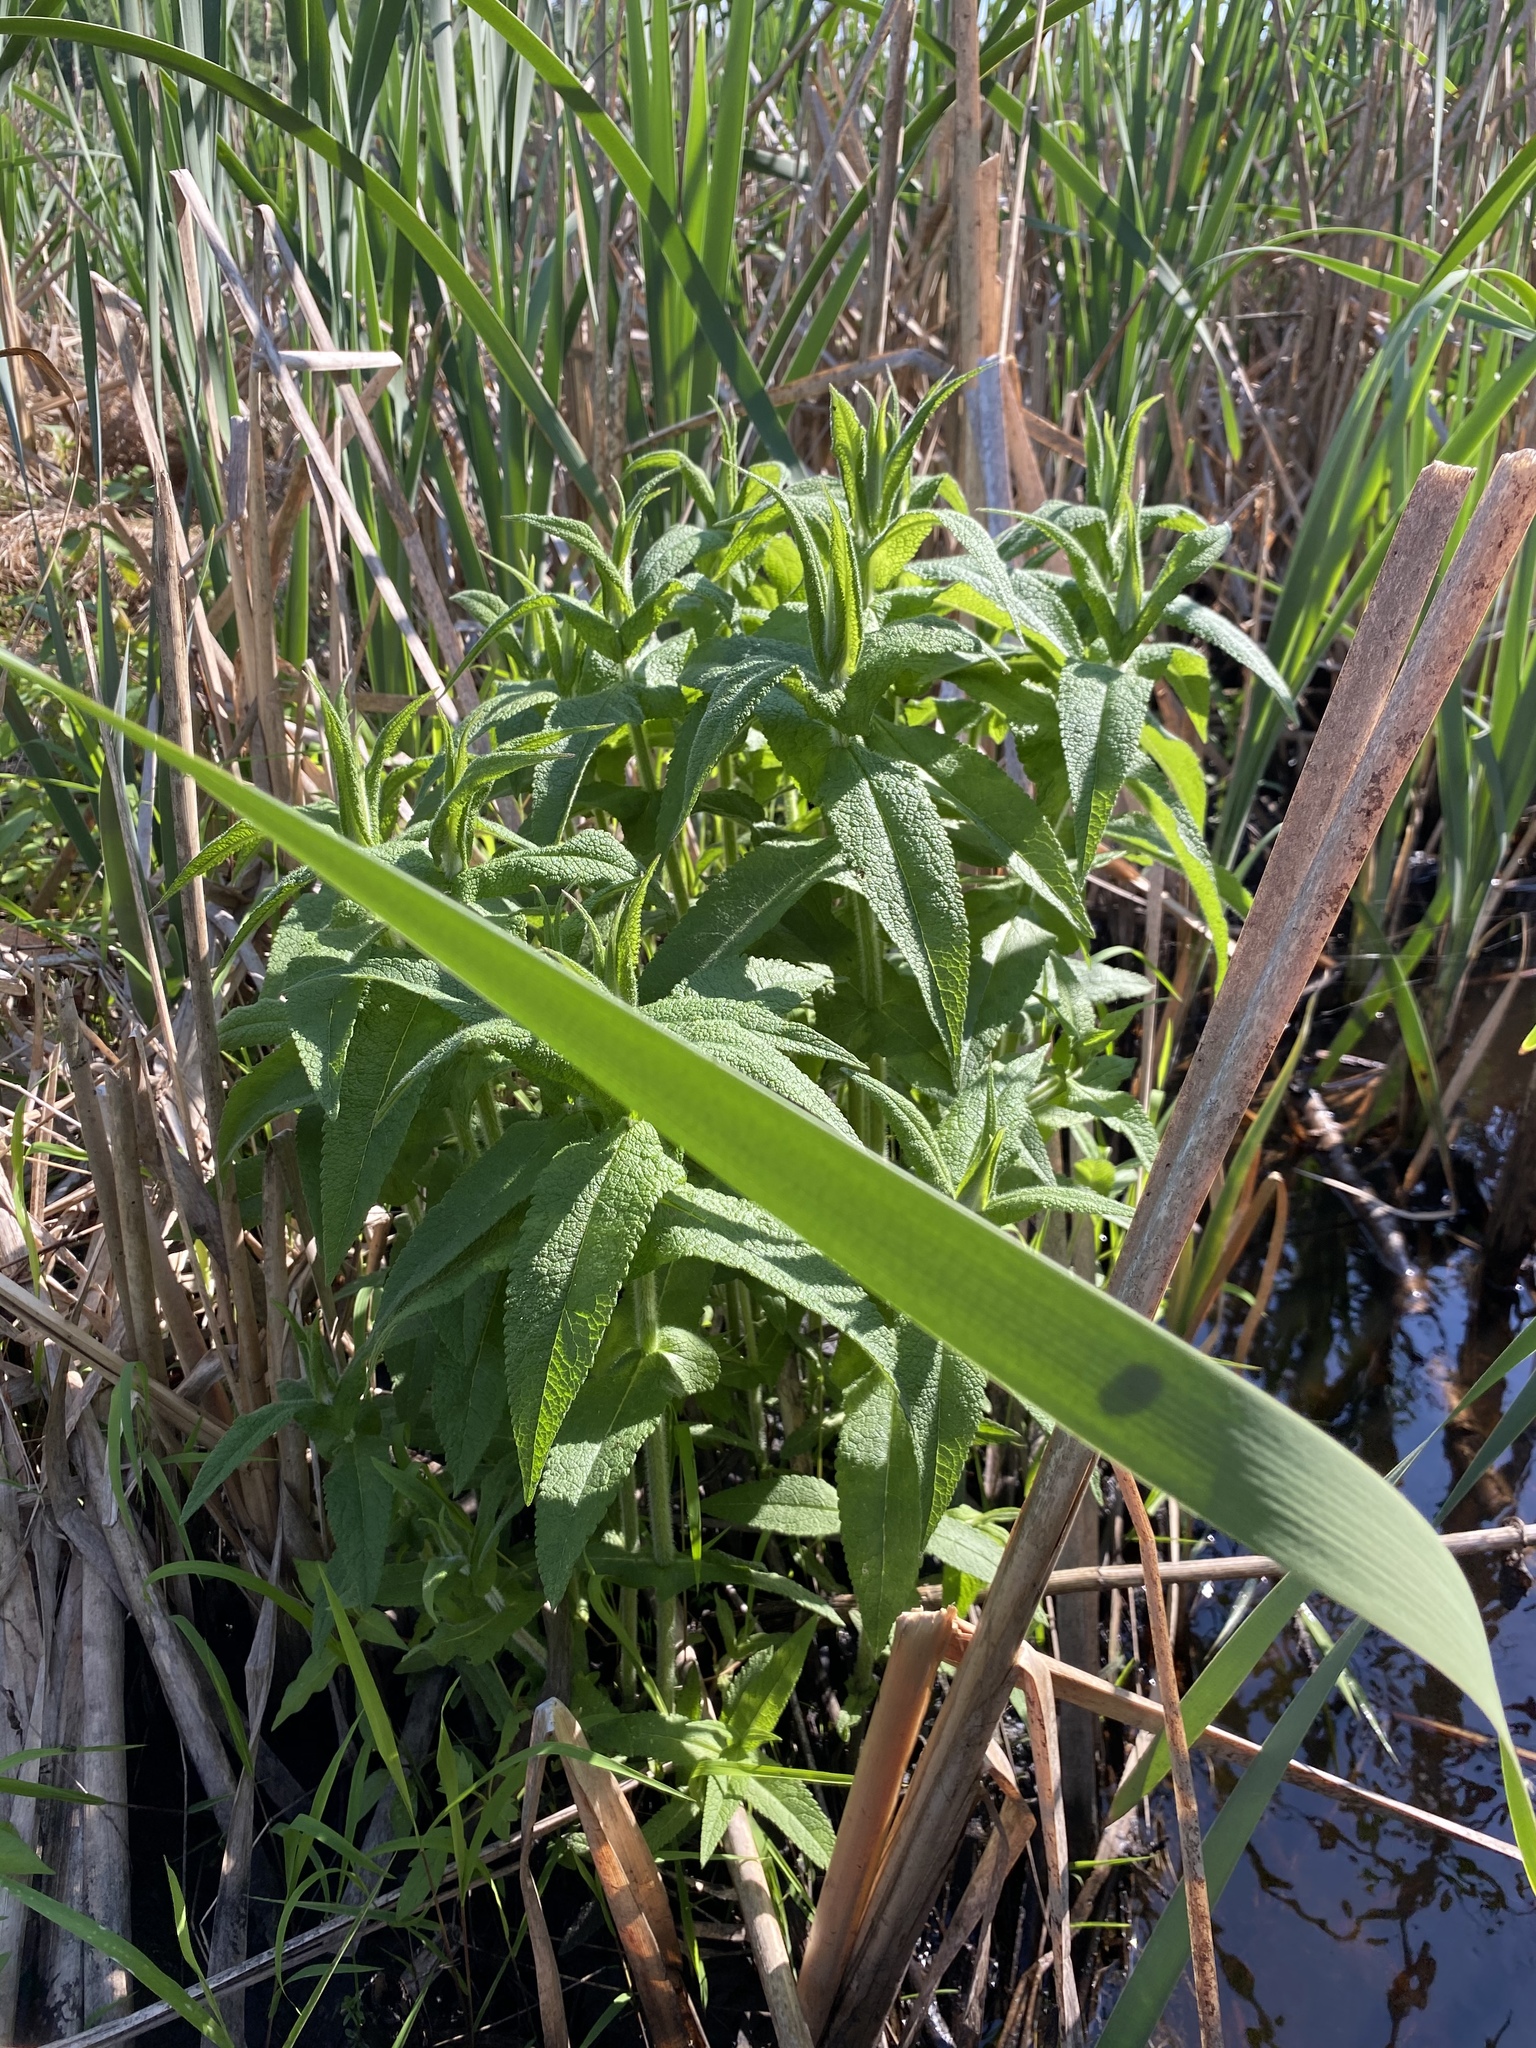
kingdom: Plantae
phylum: Tracheophyta
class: Magnoliopsida
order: Asterales
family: Asteraceae
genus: Eupatorium
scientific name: Eupatorium perfoliatum
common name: Boneset
